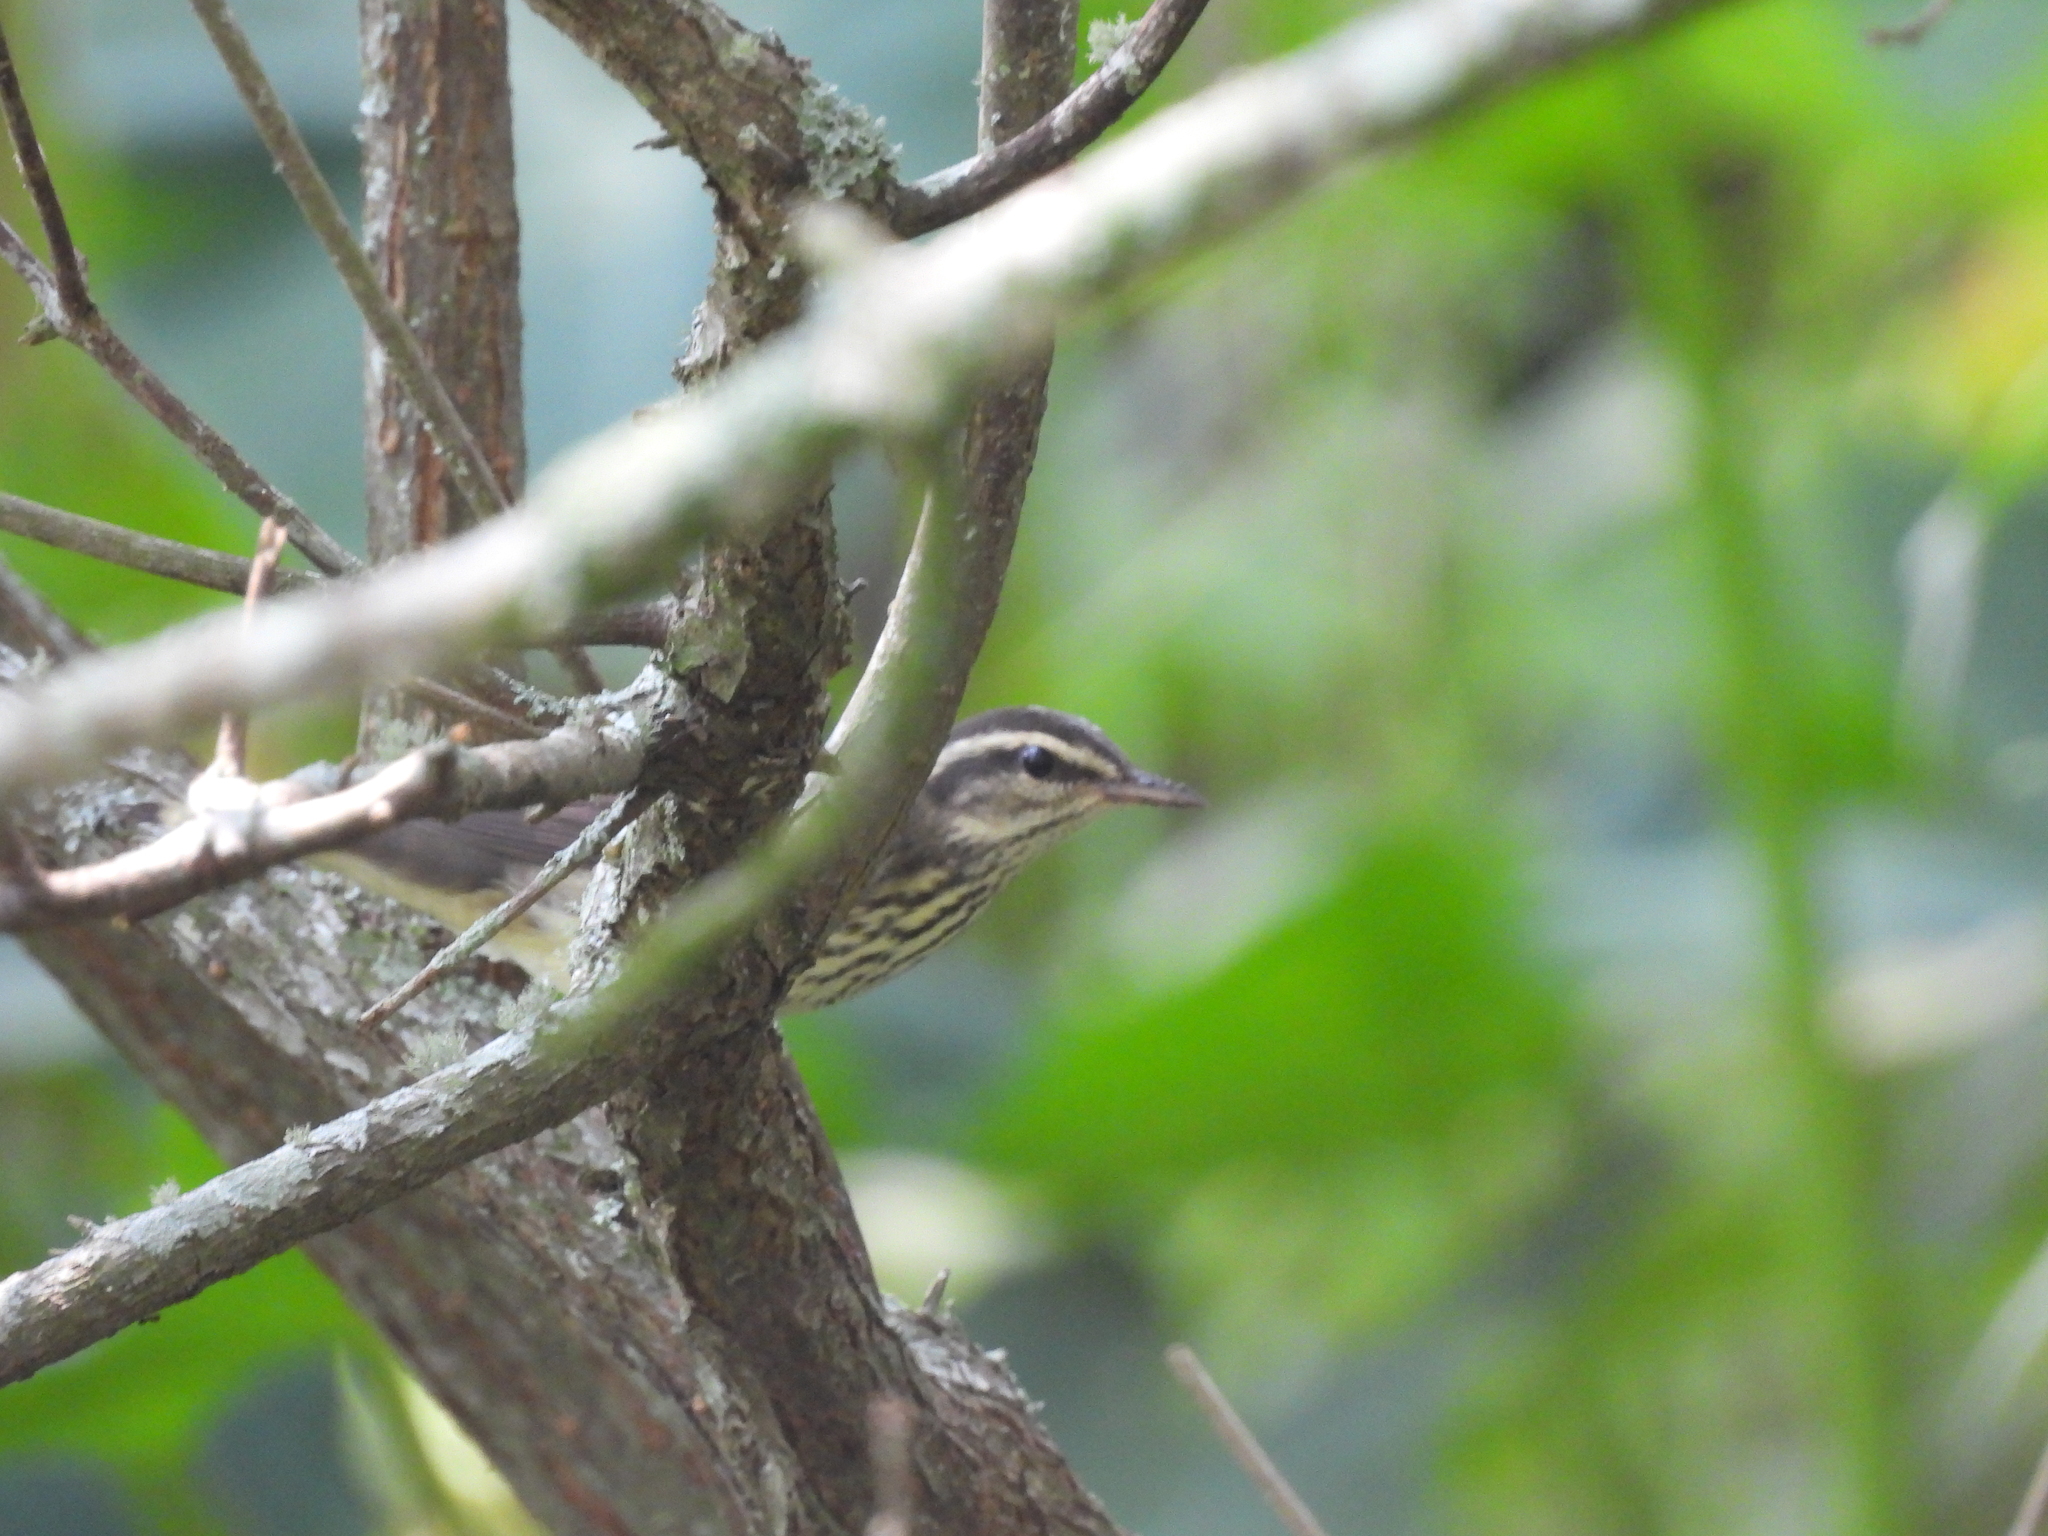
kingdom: Animalia
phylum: Chordata
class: Aves
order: Passeriformes
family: Parulidae
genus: Parkesia
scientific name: Parkesia noveboracensis
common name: Northern waterthrush
